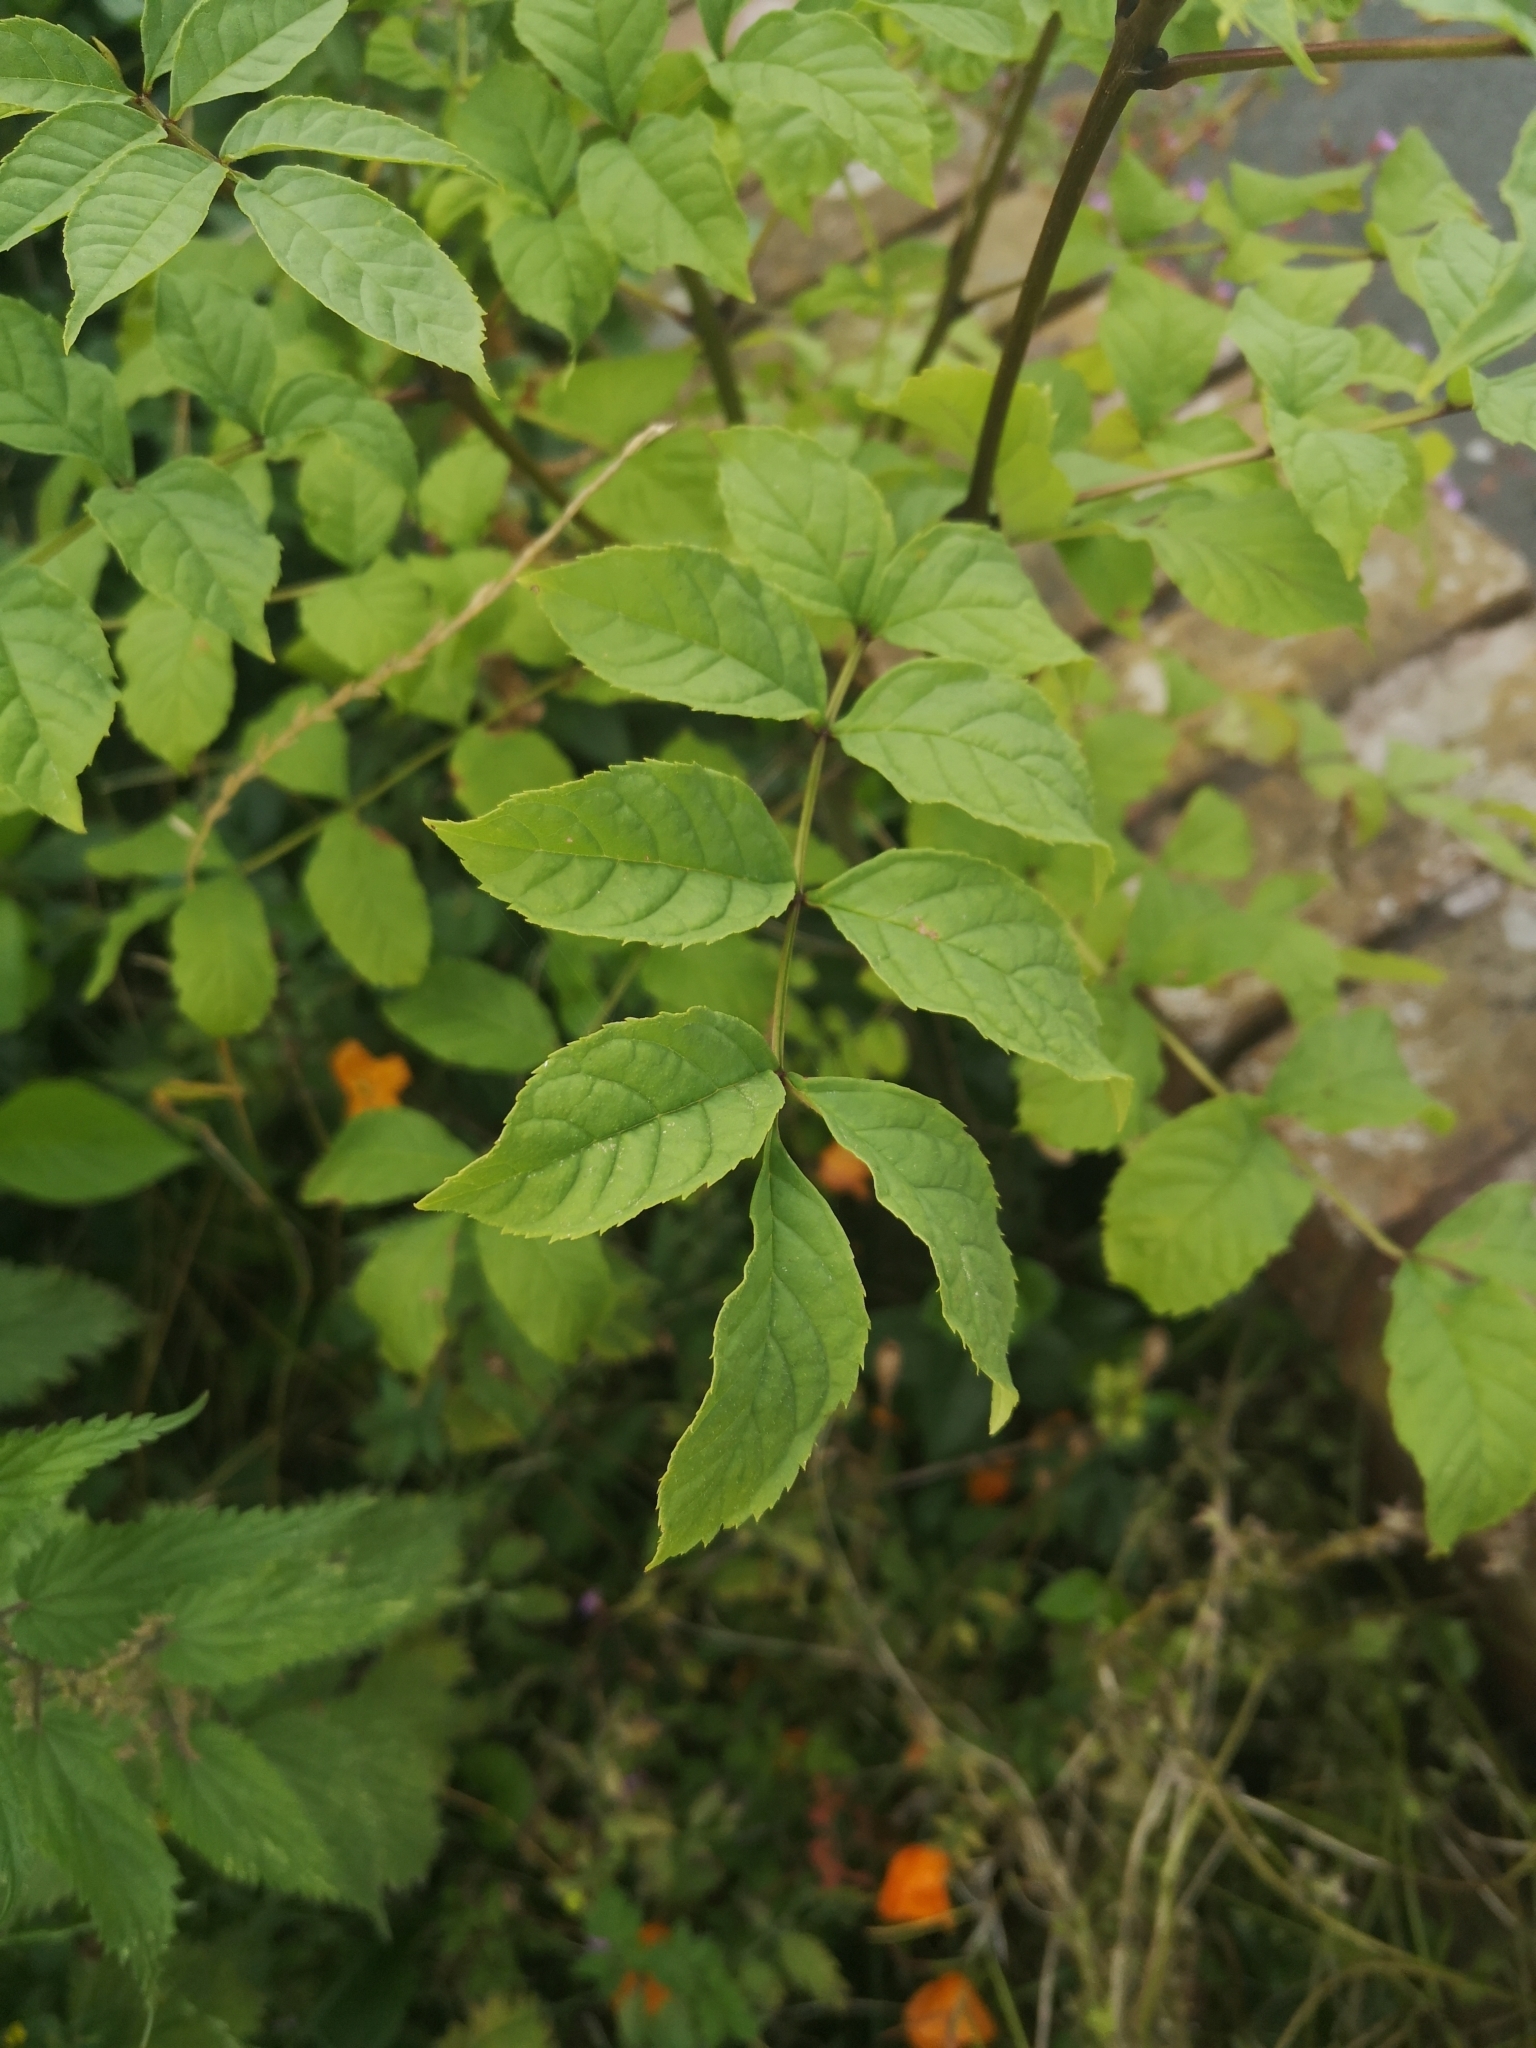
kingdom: Plantae
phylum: Tracheophyta
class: Magnoliopsida
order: Lamiales
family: Oleaceae
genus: Fraxinus
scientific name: Fraxinus excelsior
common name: European ash
